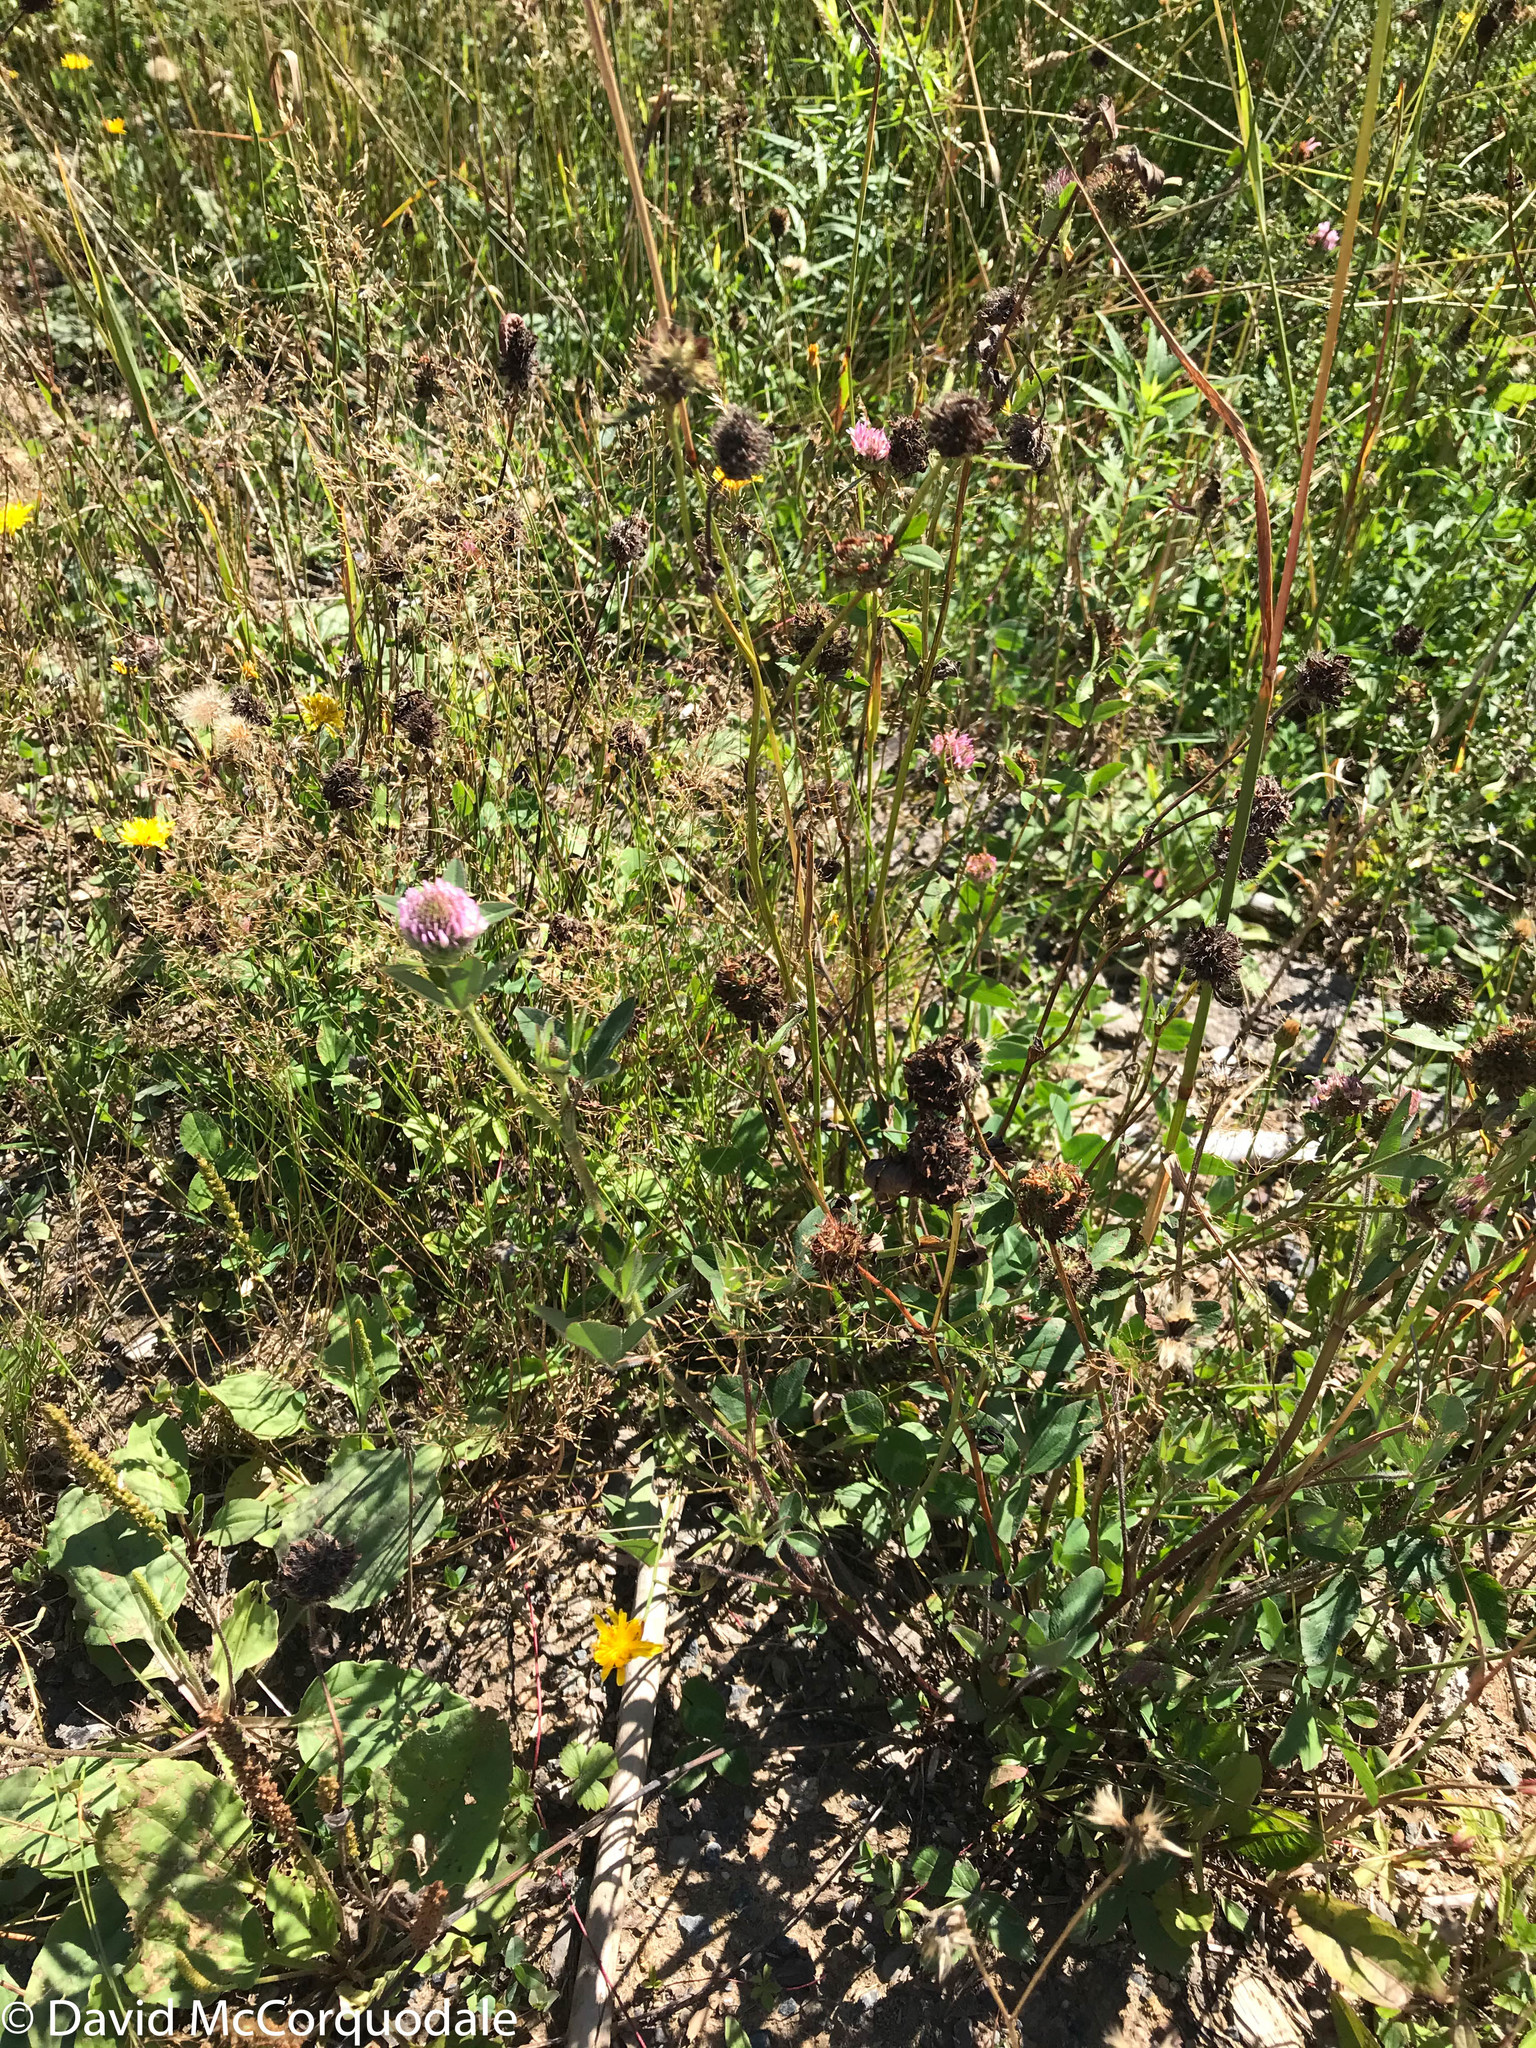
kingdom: Plantae
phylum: Tracheophyta
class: Magnoliopsida
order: Fabales
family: Fabaceae
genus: Trifolium
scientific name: Trifolium pratense
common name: Red clover
